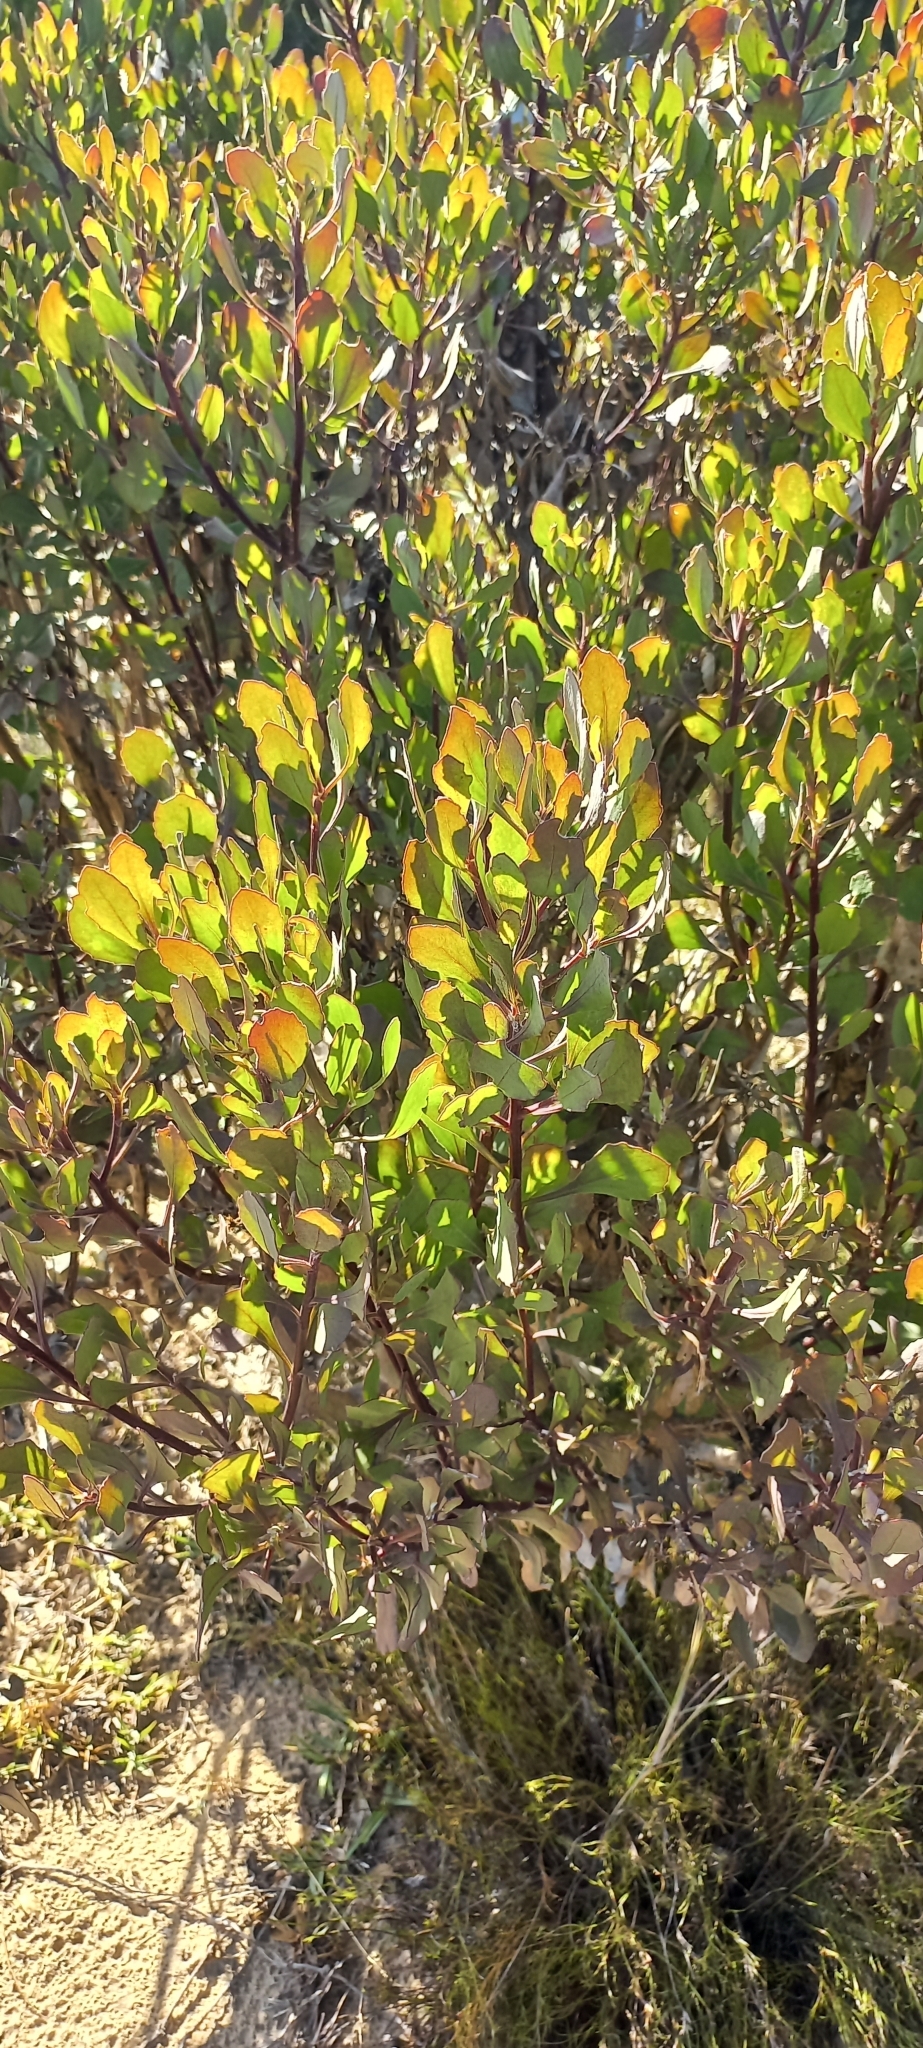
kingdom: Plantae
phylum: Tracheophyta
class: Magnoliopsida
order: Asterales
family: Asteraceae
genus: Osteospermum
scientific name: Osteospermum moniliferum
